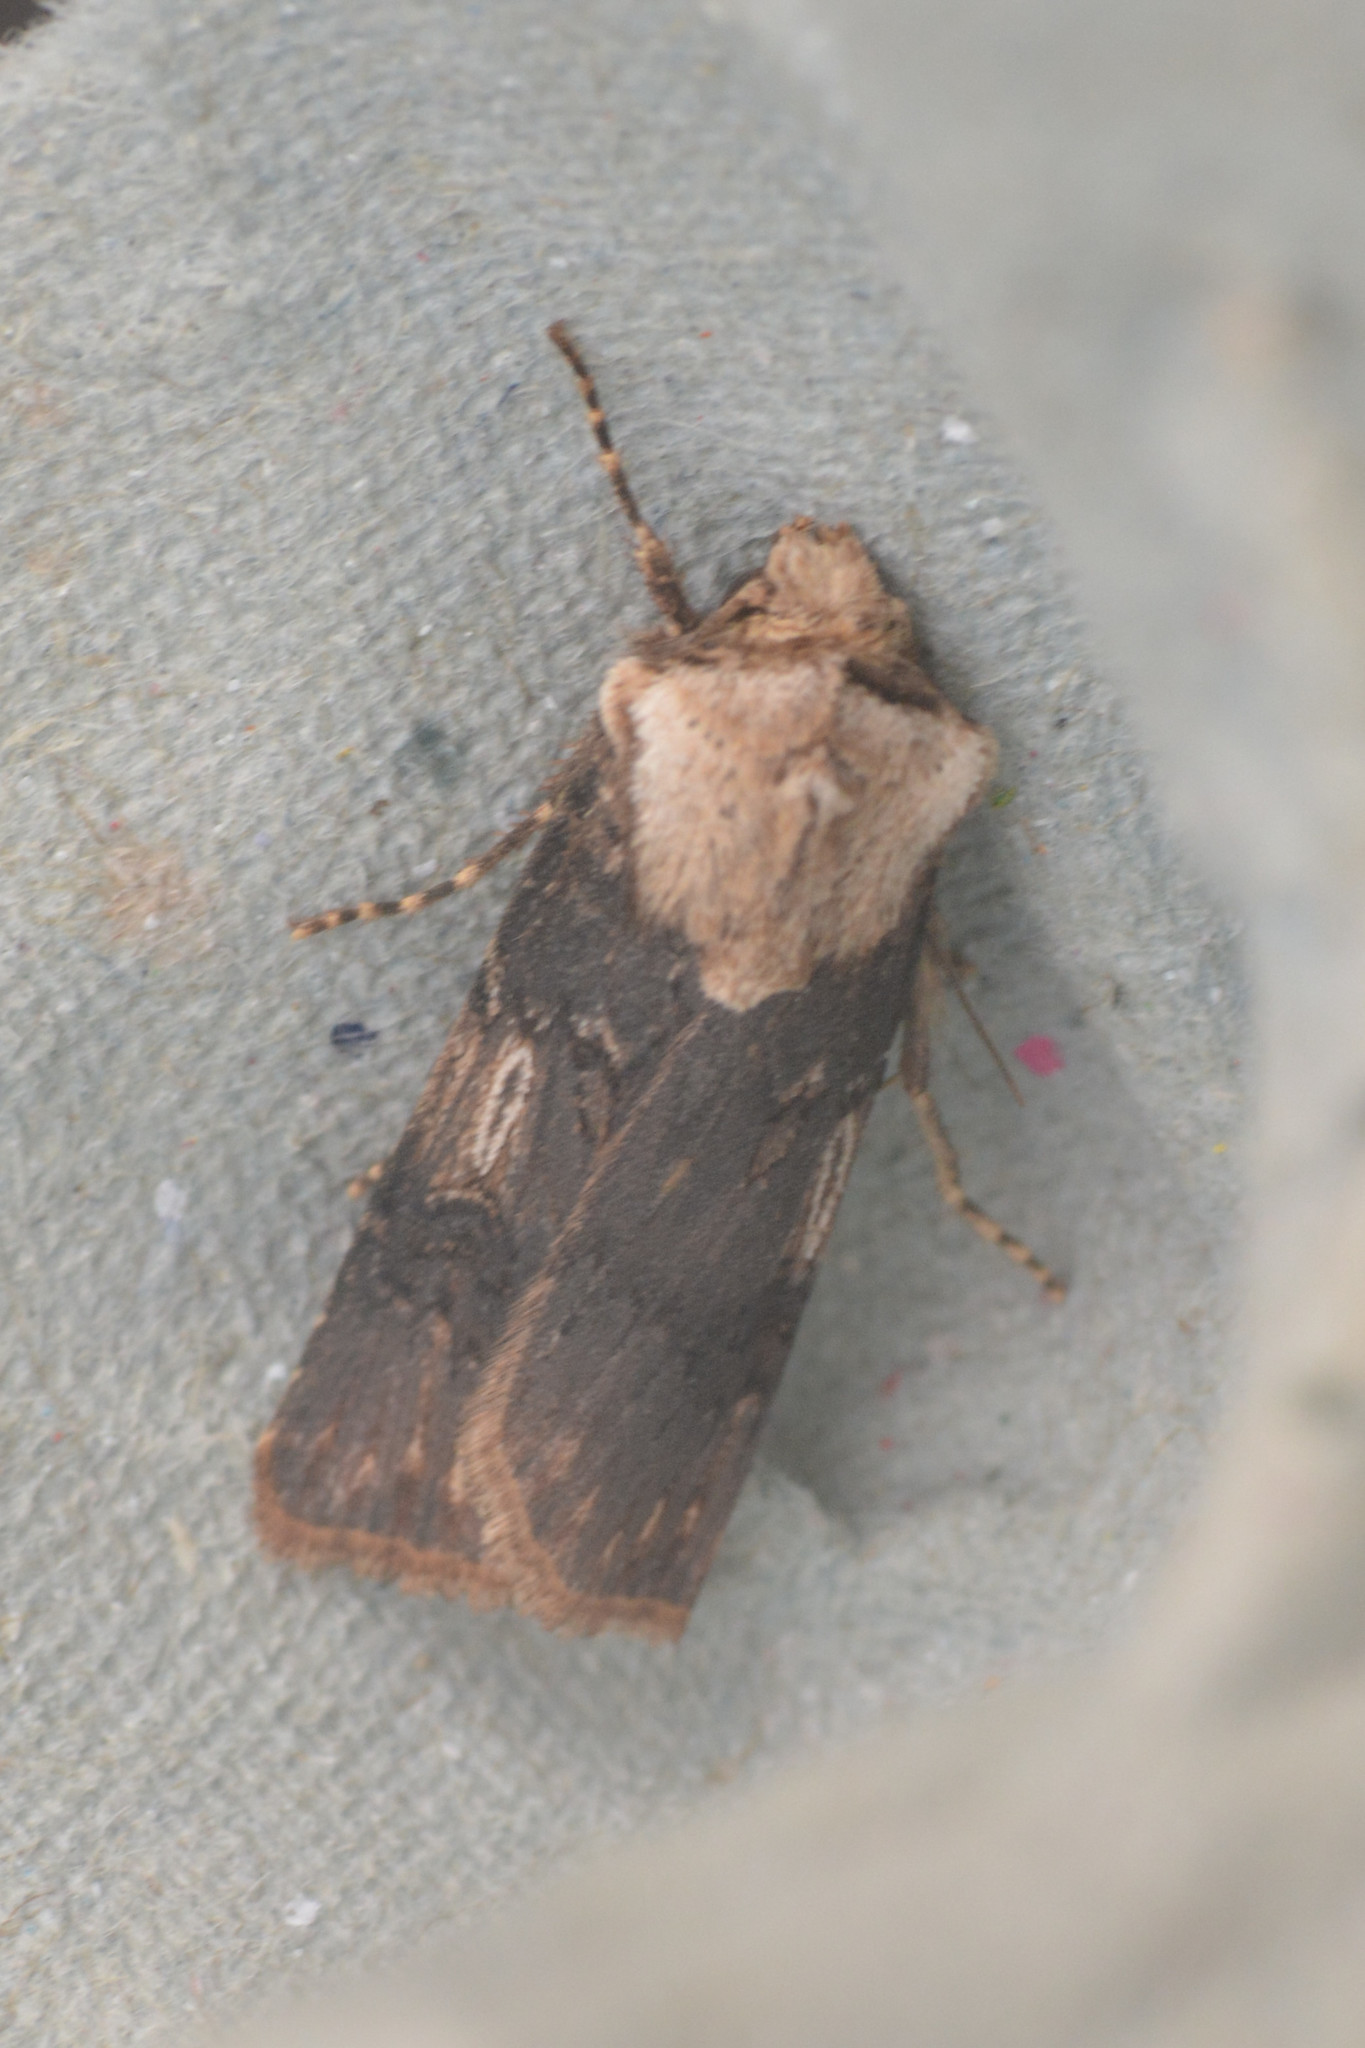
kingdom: Animalia
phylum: Arthropoda
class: Insecta
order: Lepidoptera
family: Noctuidae
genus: Agrotis
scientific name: Agrotis puta
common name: Shuttle-shaped dart
